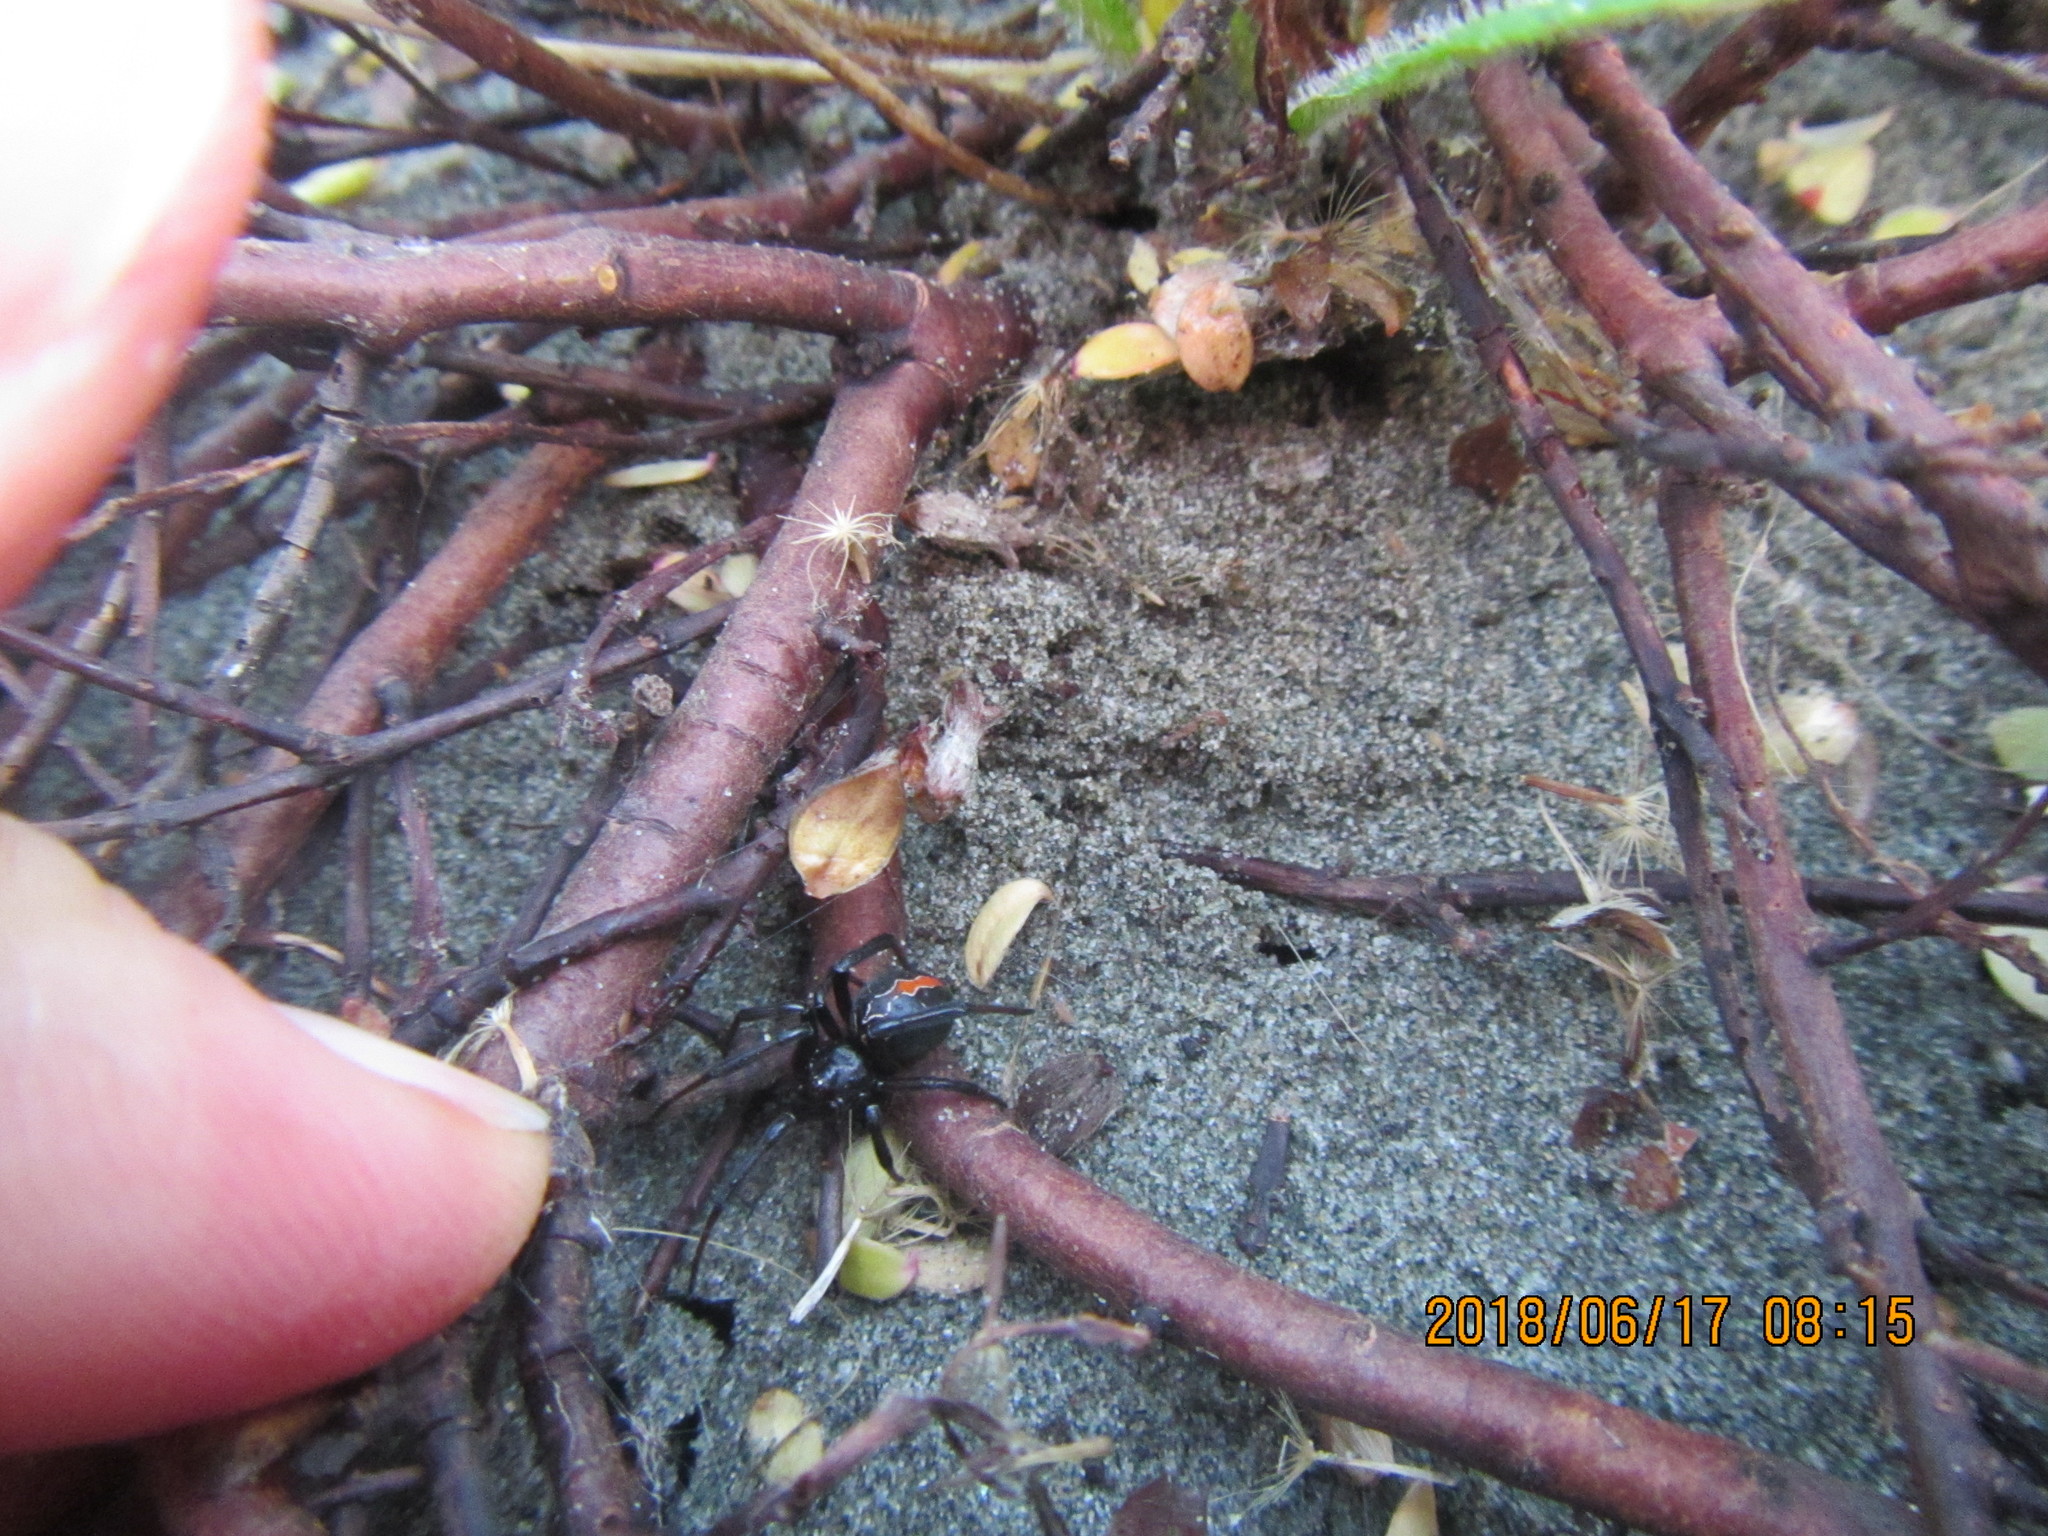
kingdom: Plantae
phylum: Tracheophyta
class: Magnoliopsida
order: Malvales
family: Thymelaeaceae
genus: Pimelea
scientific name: Pimelea villosa
